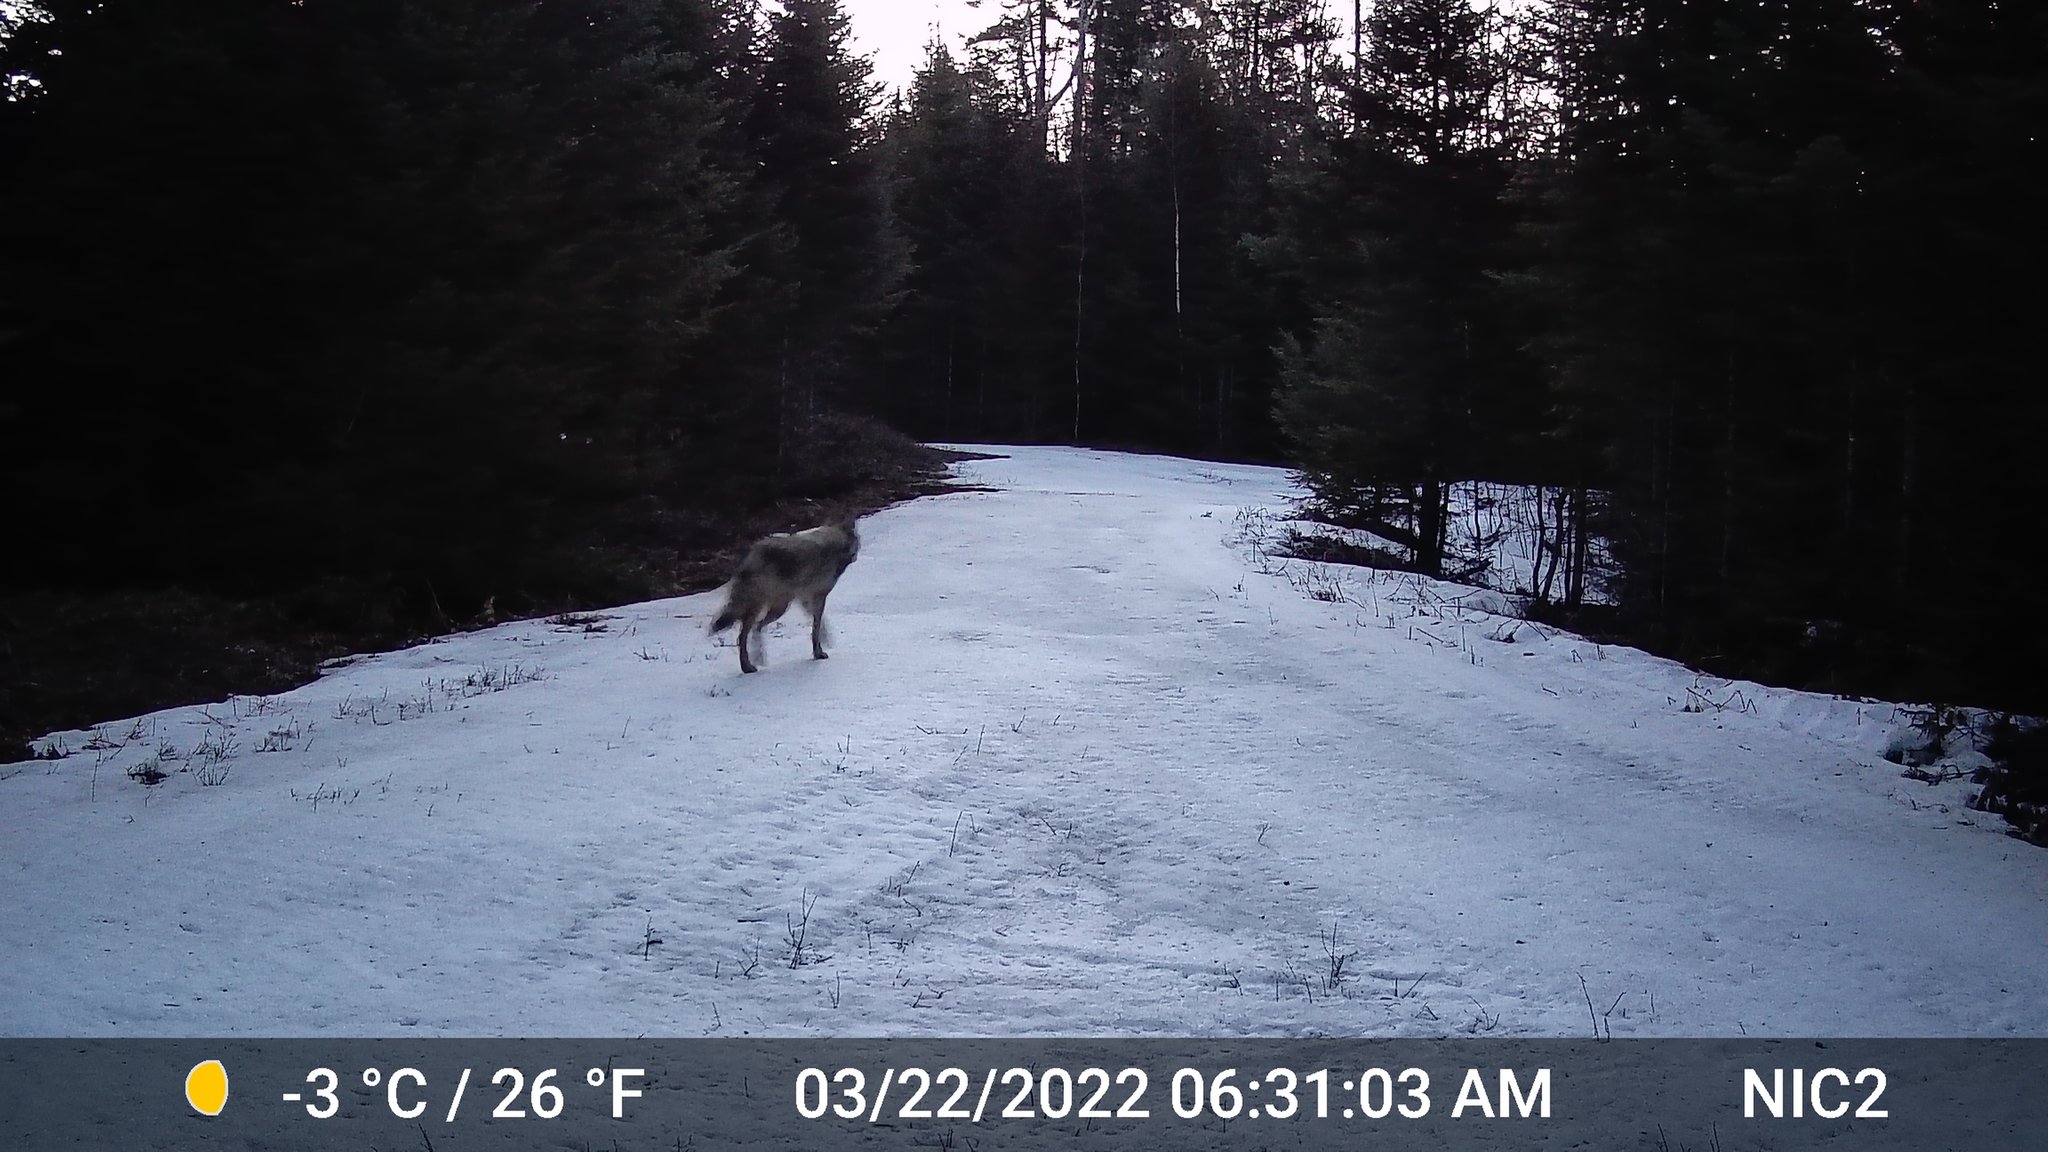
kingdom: Animalia
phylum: Chordata
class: Mammalia
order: Carnivora
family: Canidae
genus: Canis
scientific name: Canis latrans
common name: Coyote
